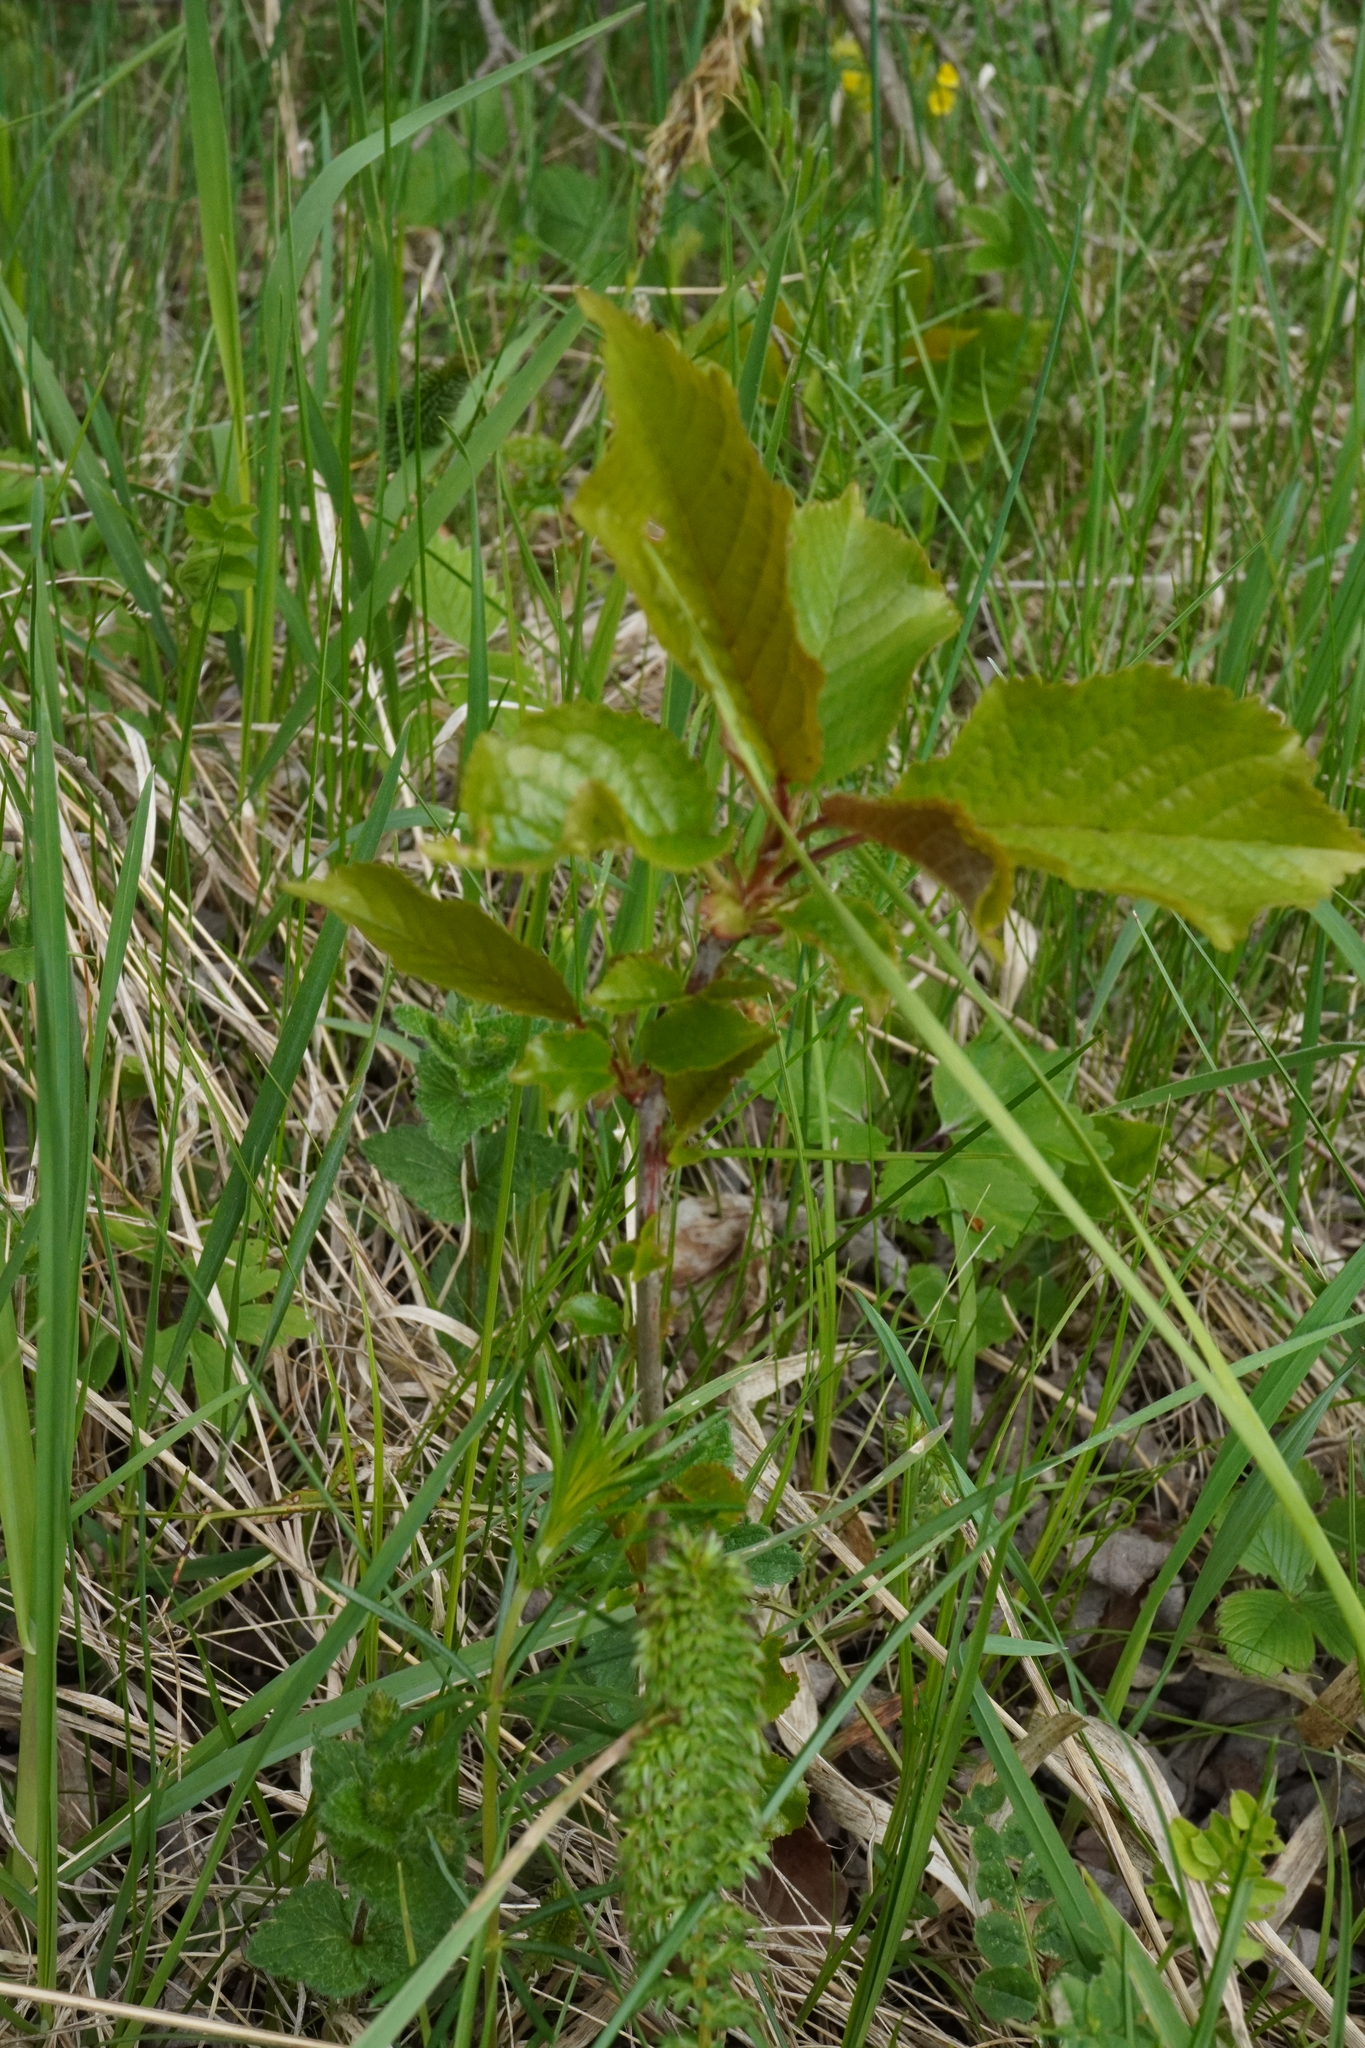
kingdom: Plantae
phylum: Tracheophyta
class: Magnoliopsida
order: Rosales
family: Rosaceae
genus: Prunus
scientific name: Prunus avium
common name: Sweet cherry
